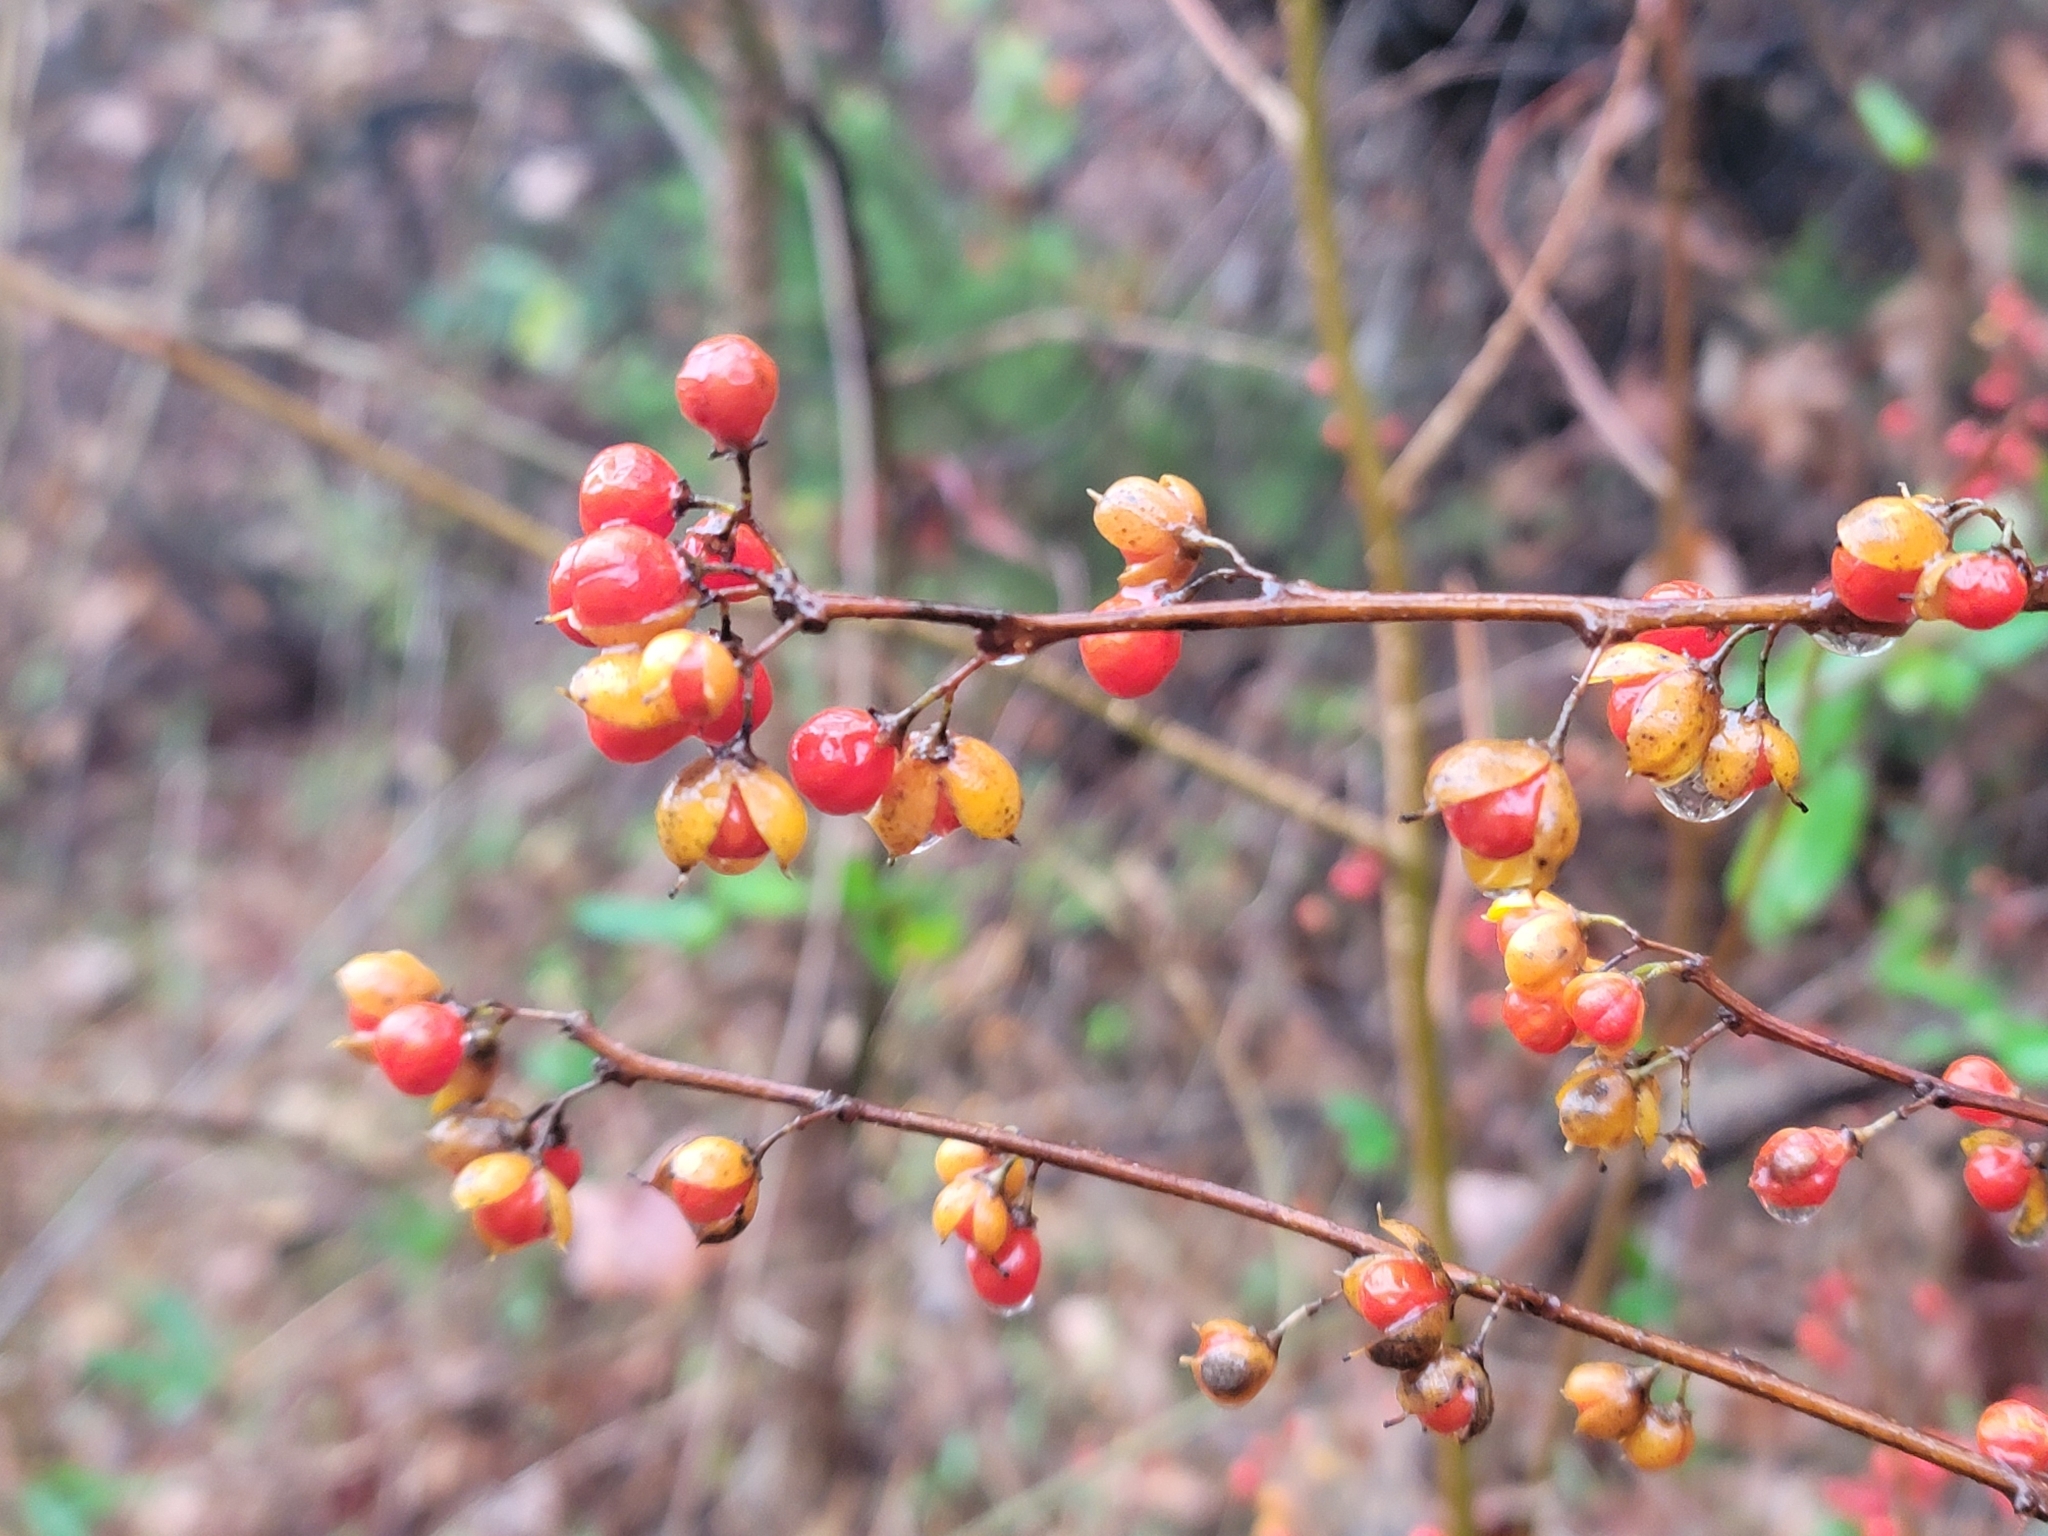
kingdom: Plantae
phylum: Tracheophyta
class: Magnoliopsida
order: Celastrales
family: Celastraceae
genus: Celastrus
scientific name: Celastrus orbiculatus
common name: Oriental bittersweet
